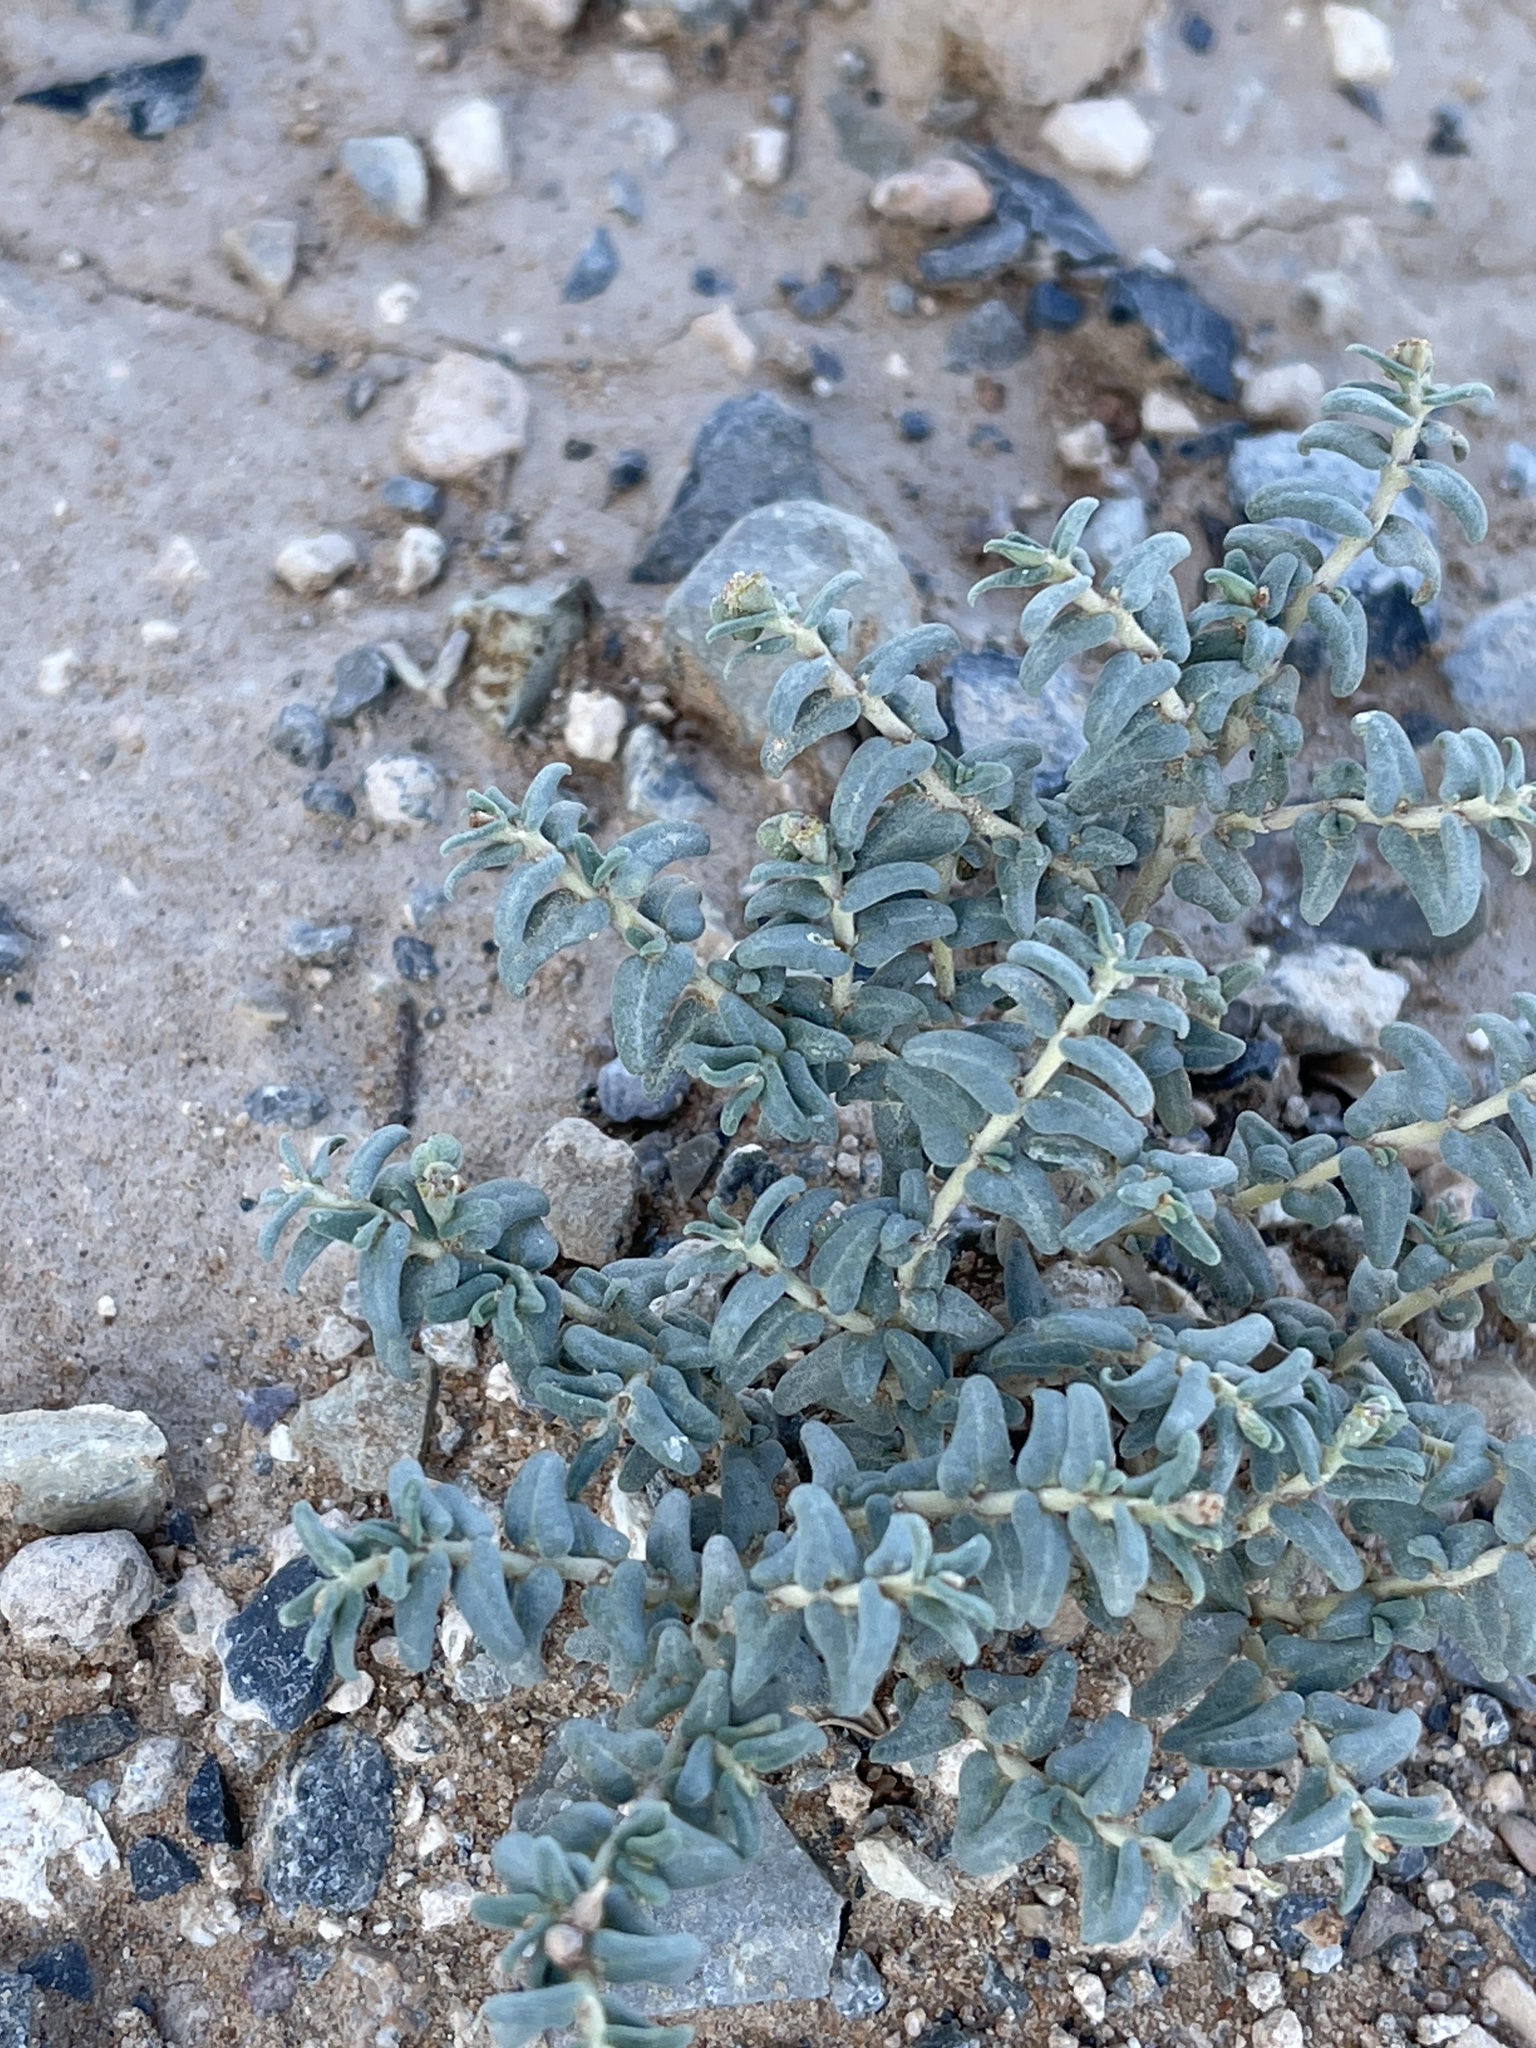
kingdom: Plantae
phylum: Tracheophyta
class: Magnoliopsida
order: Malpighiales
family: Euphorbiaceae
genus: Euphorbia
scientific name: Euphorbia lata
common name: Hoary euphorbia
